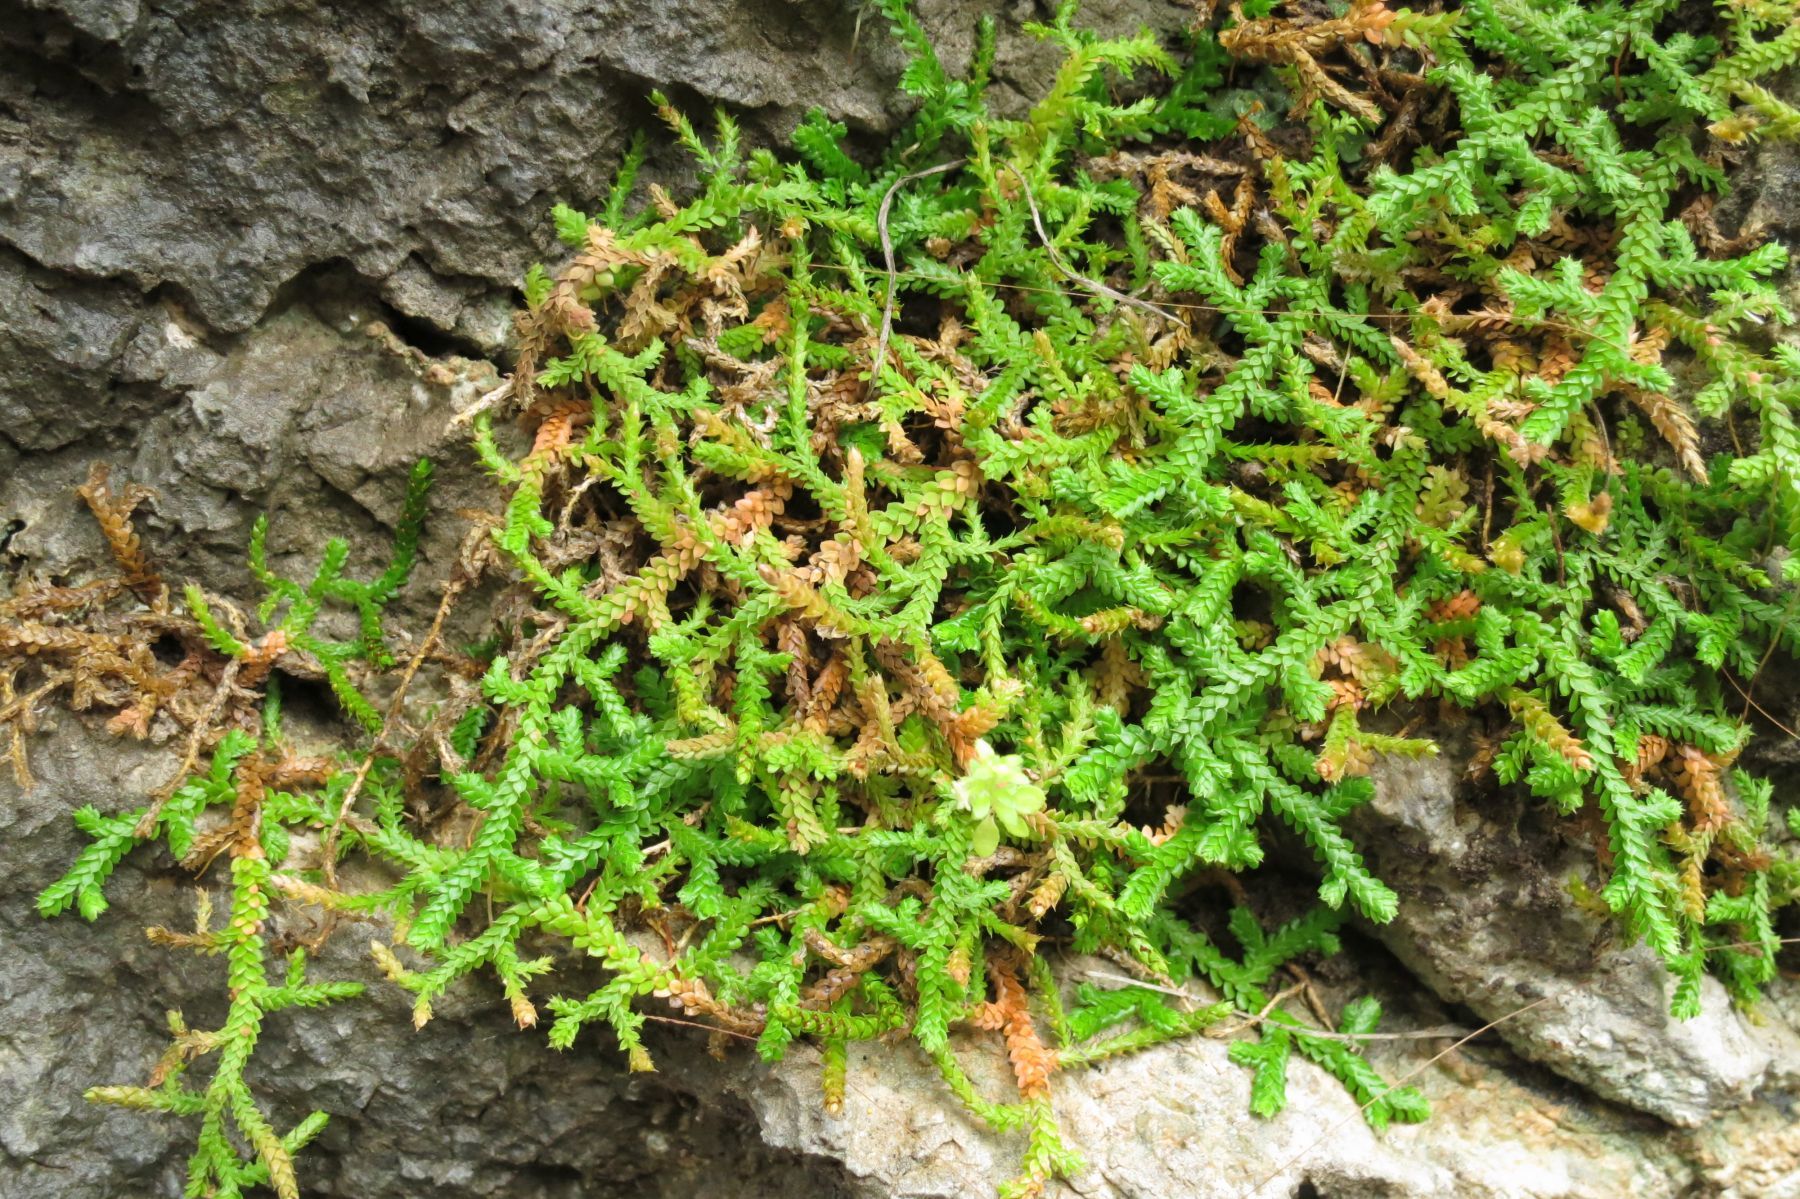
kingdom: Plantae
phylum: Tracheophyta
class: Lycopodiopsida
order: Selaginellales
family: Selaginellaceae
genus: Selaginella
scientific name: Selaginella denticulata
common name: Toothed-leaved clubmoss
